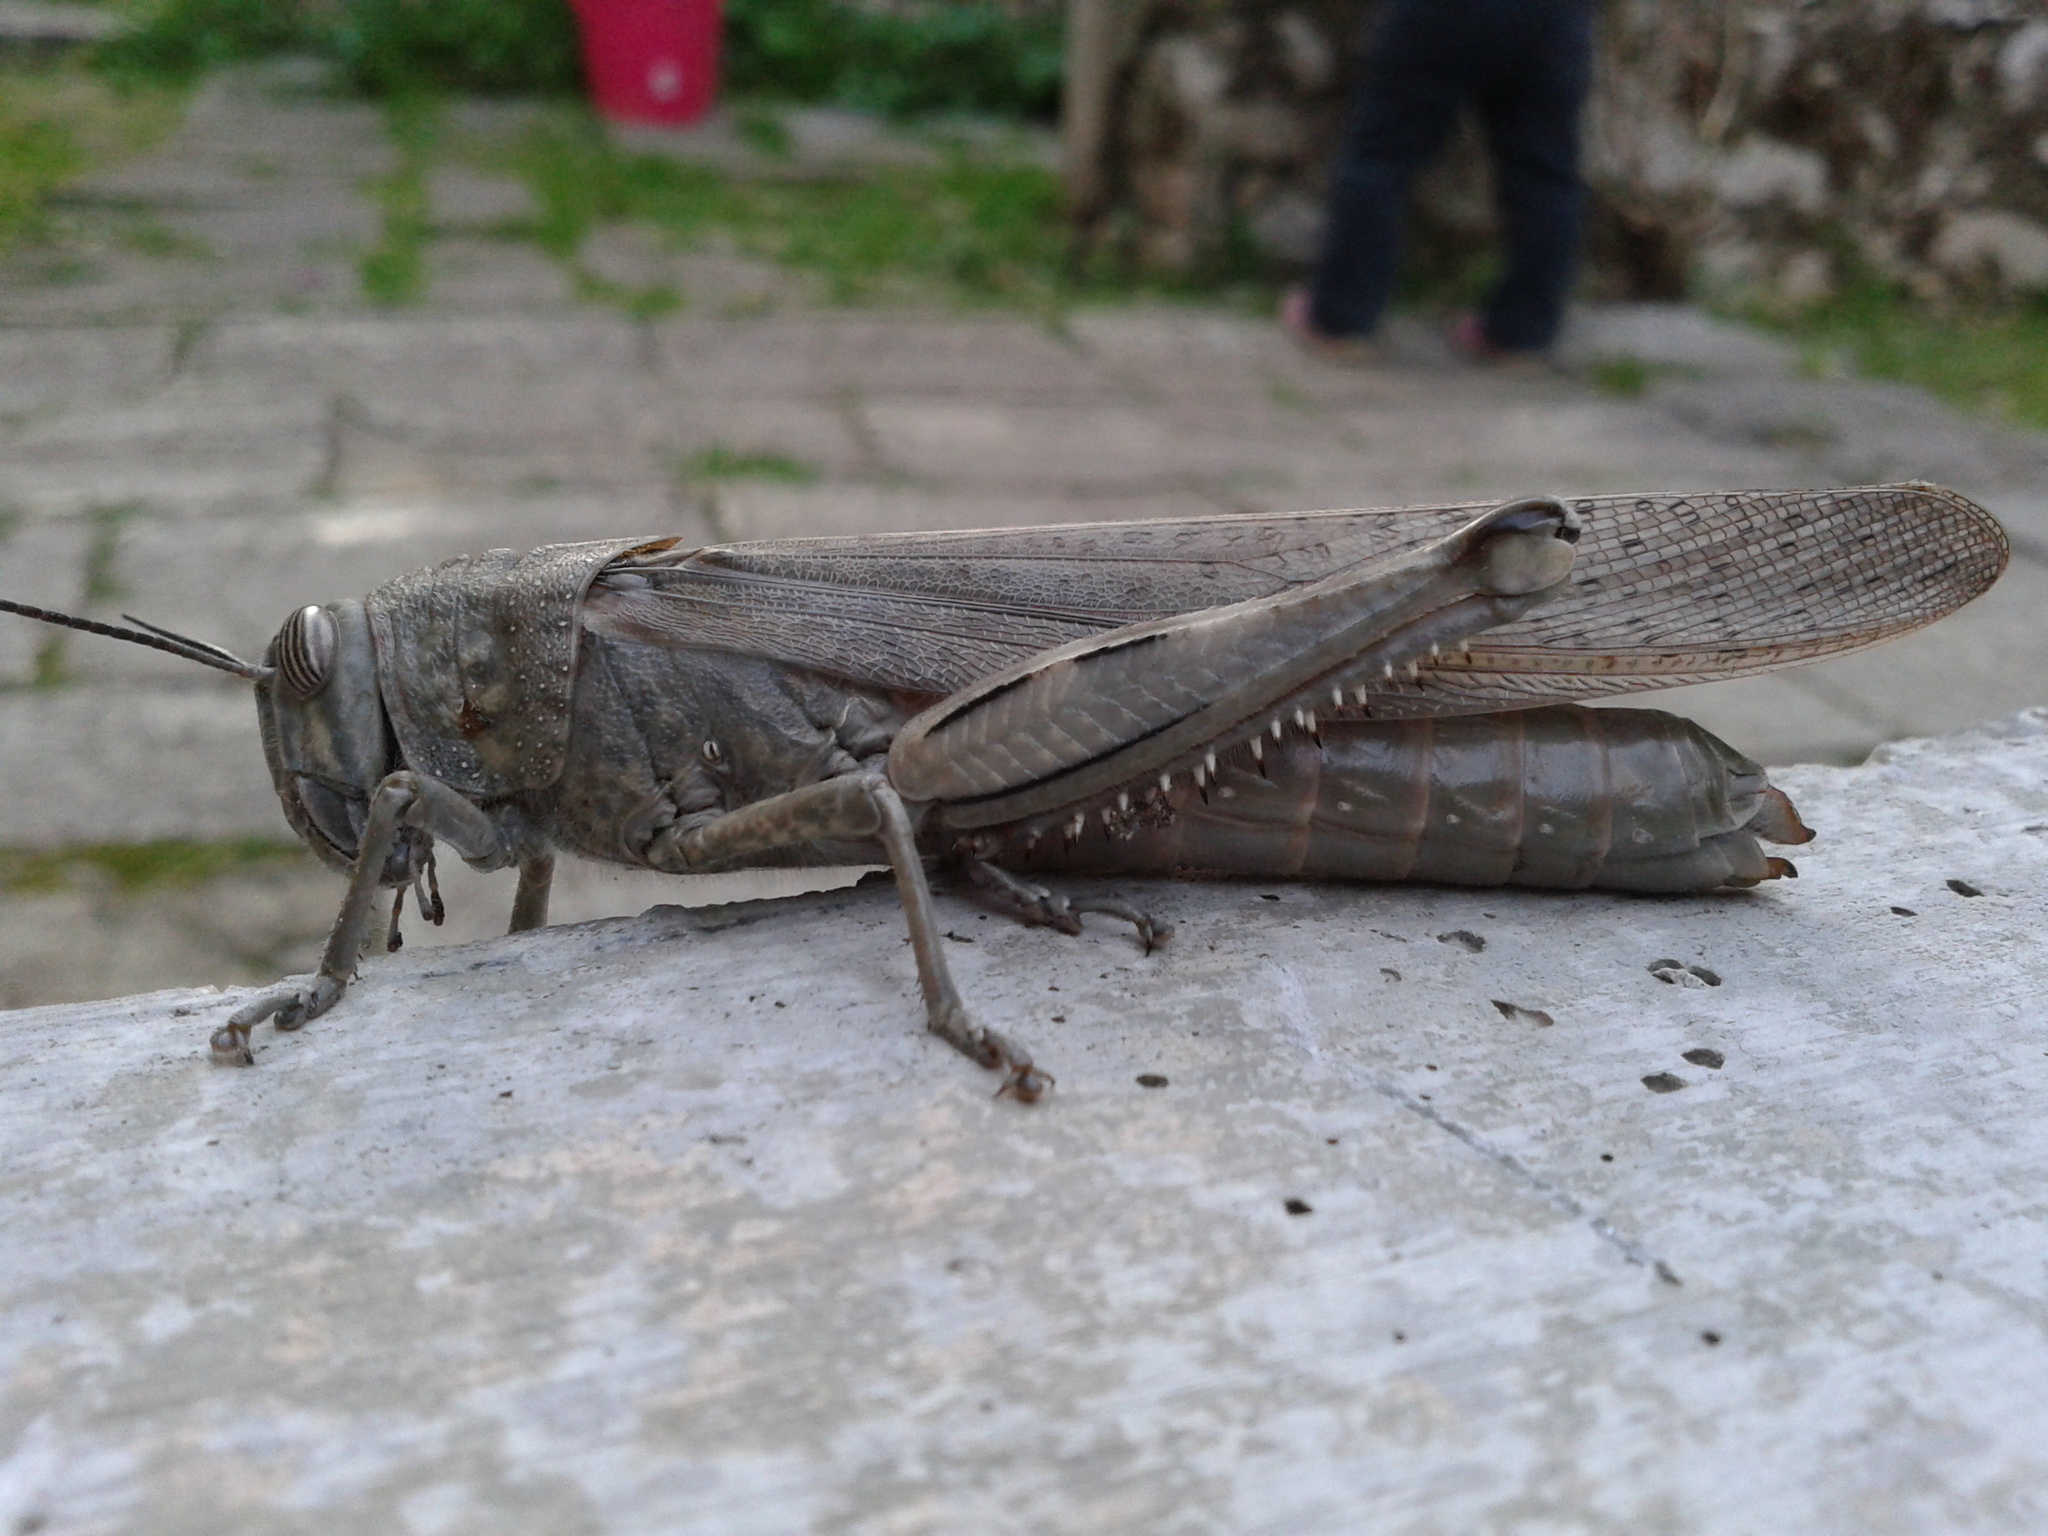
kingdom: Animalia
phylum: Arthropoda
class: Insecta
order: Orthoptera
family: Acrididae
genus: Anacridium
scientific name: Anacridium aegyptium
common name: Egyptian grasshopper
